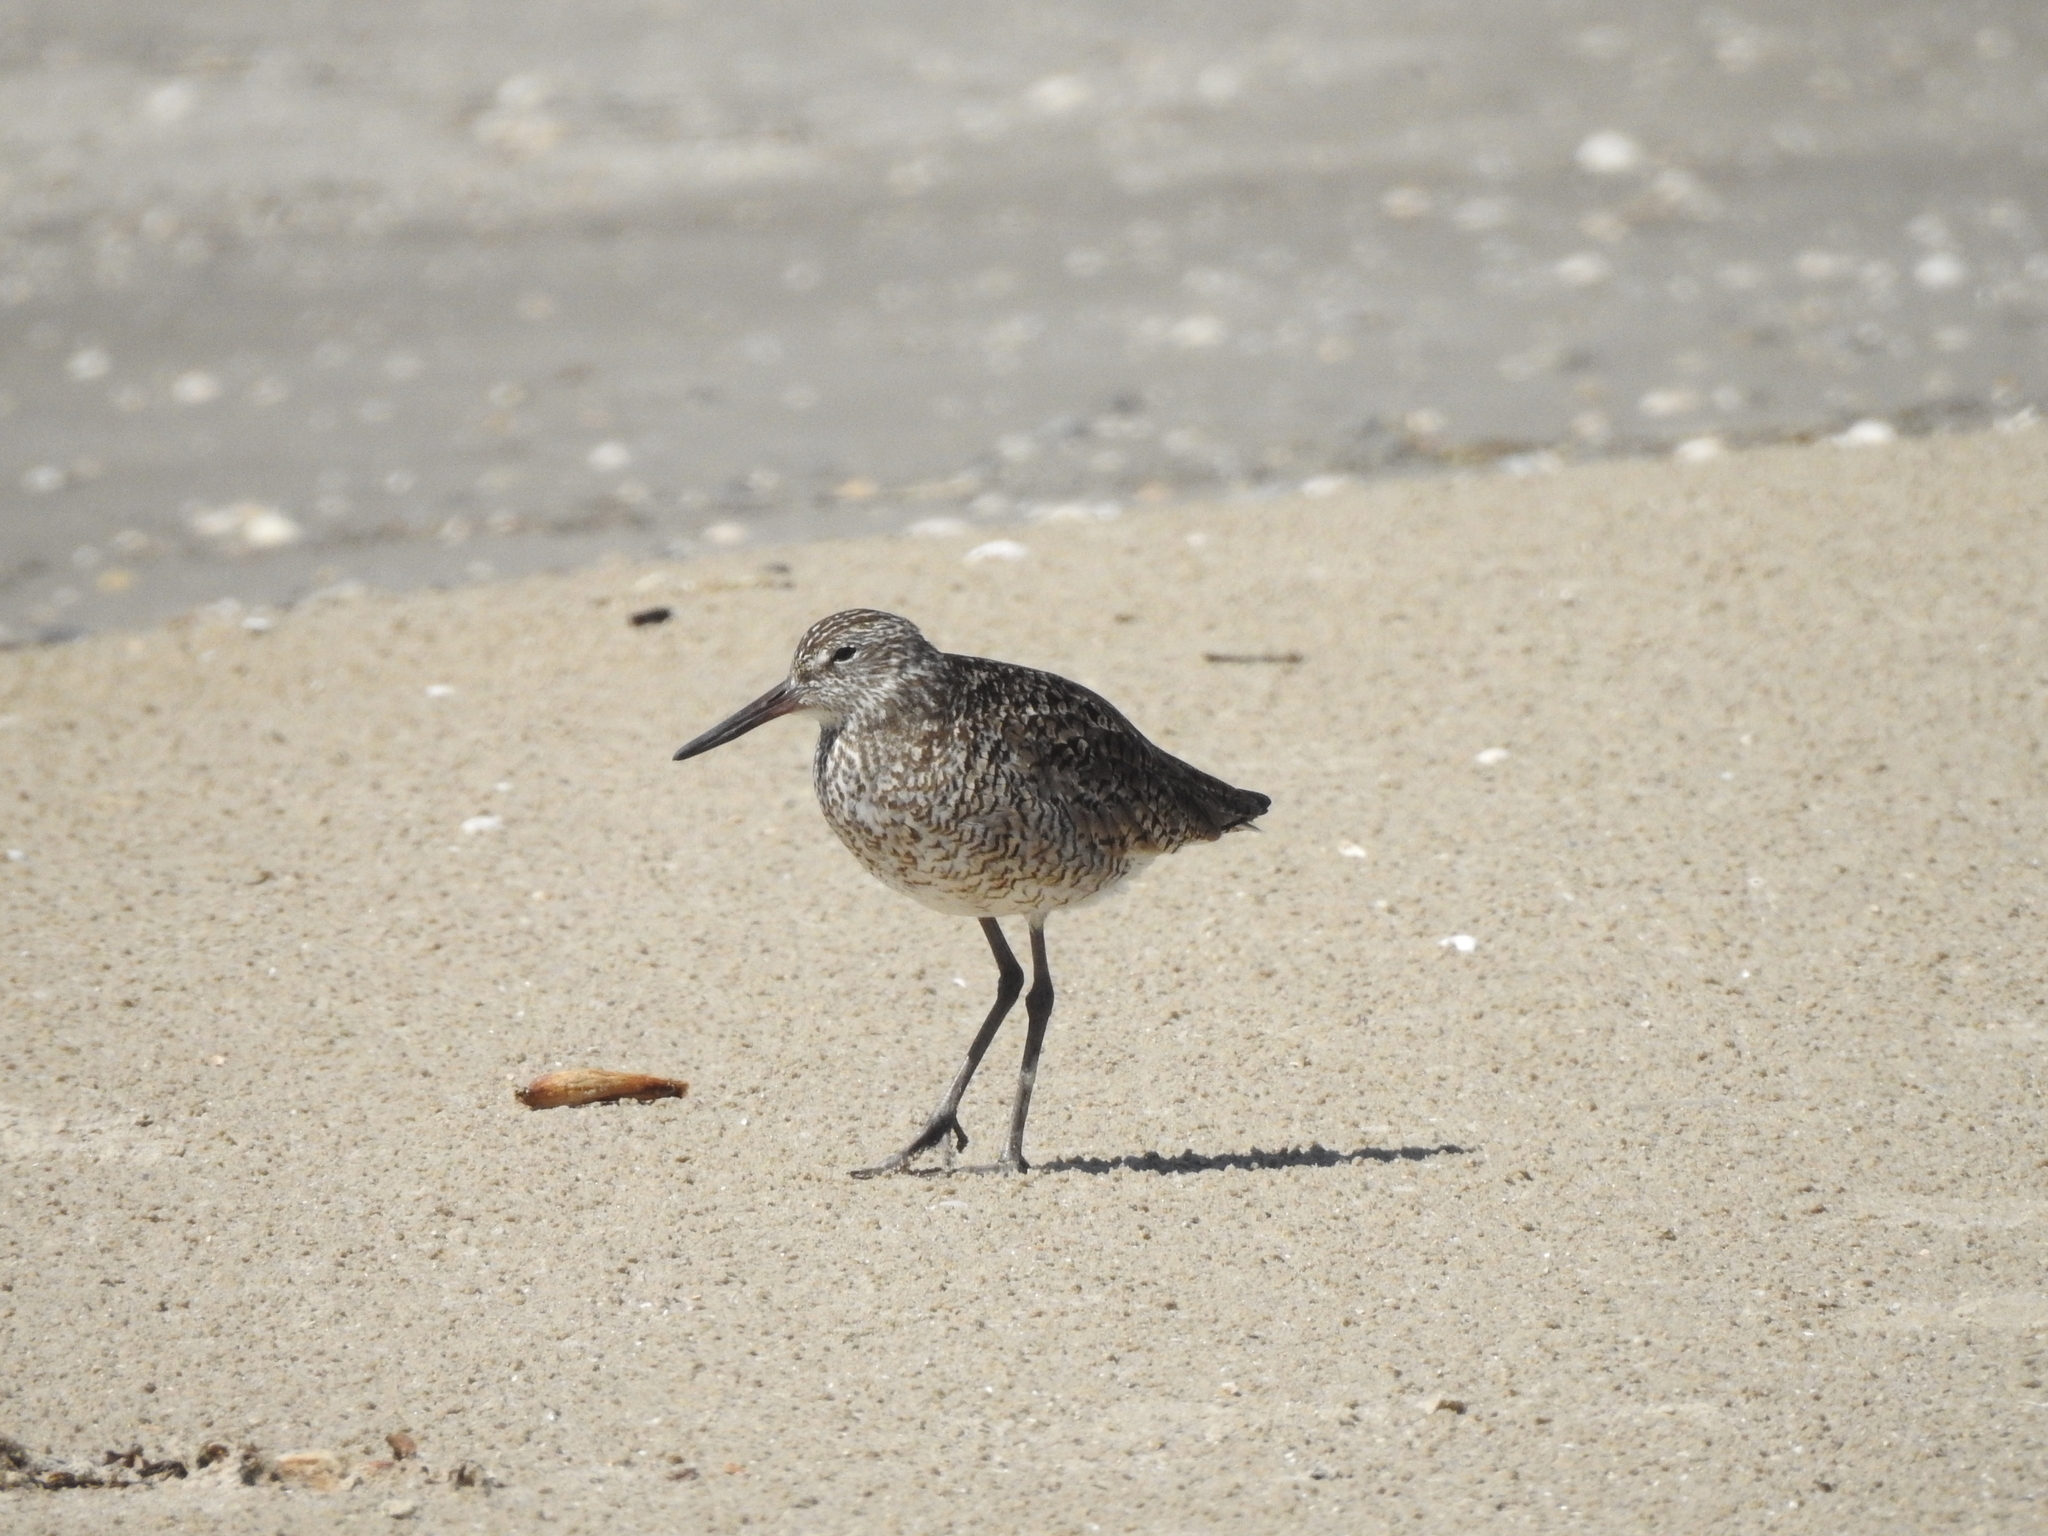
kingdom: Animalia
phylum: Chordata
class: Aves
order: Charadriiformes
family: Scolopacidae
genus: Tringa
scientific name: Tringa semipalmata
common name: Willet
